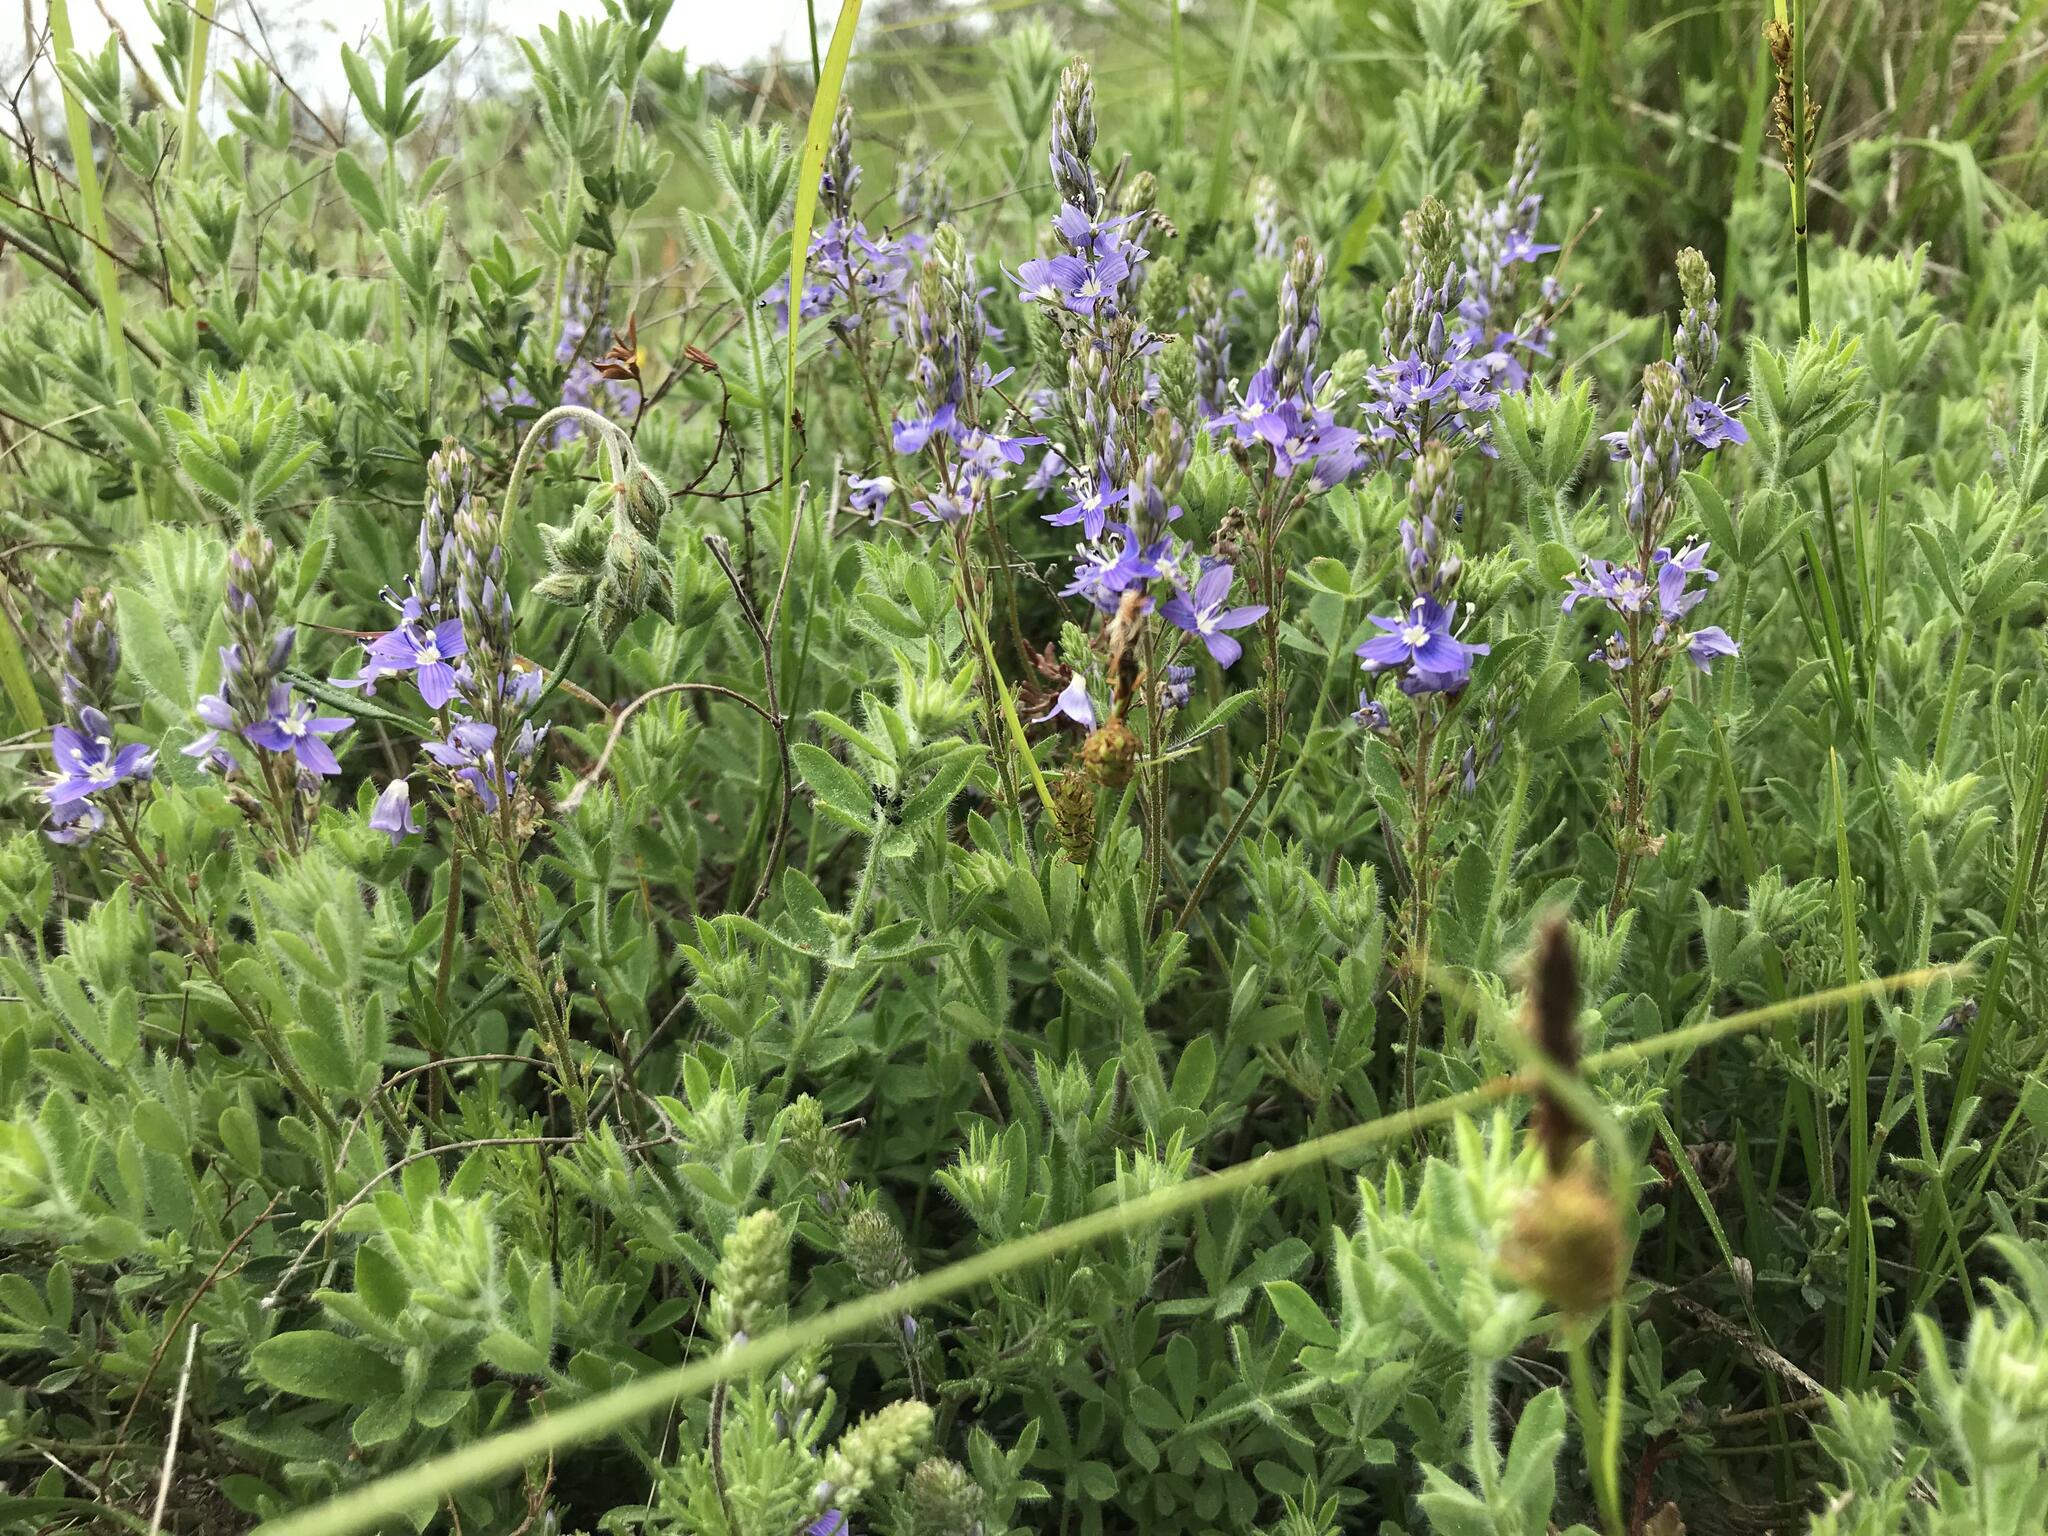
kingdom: Plantae
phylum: Tracheophyta
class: Magnoliopsida
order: Lamiales
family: Plantaginaceae
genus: Veronica
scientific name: Veronica capsellicarpa
